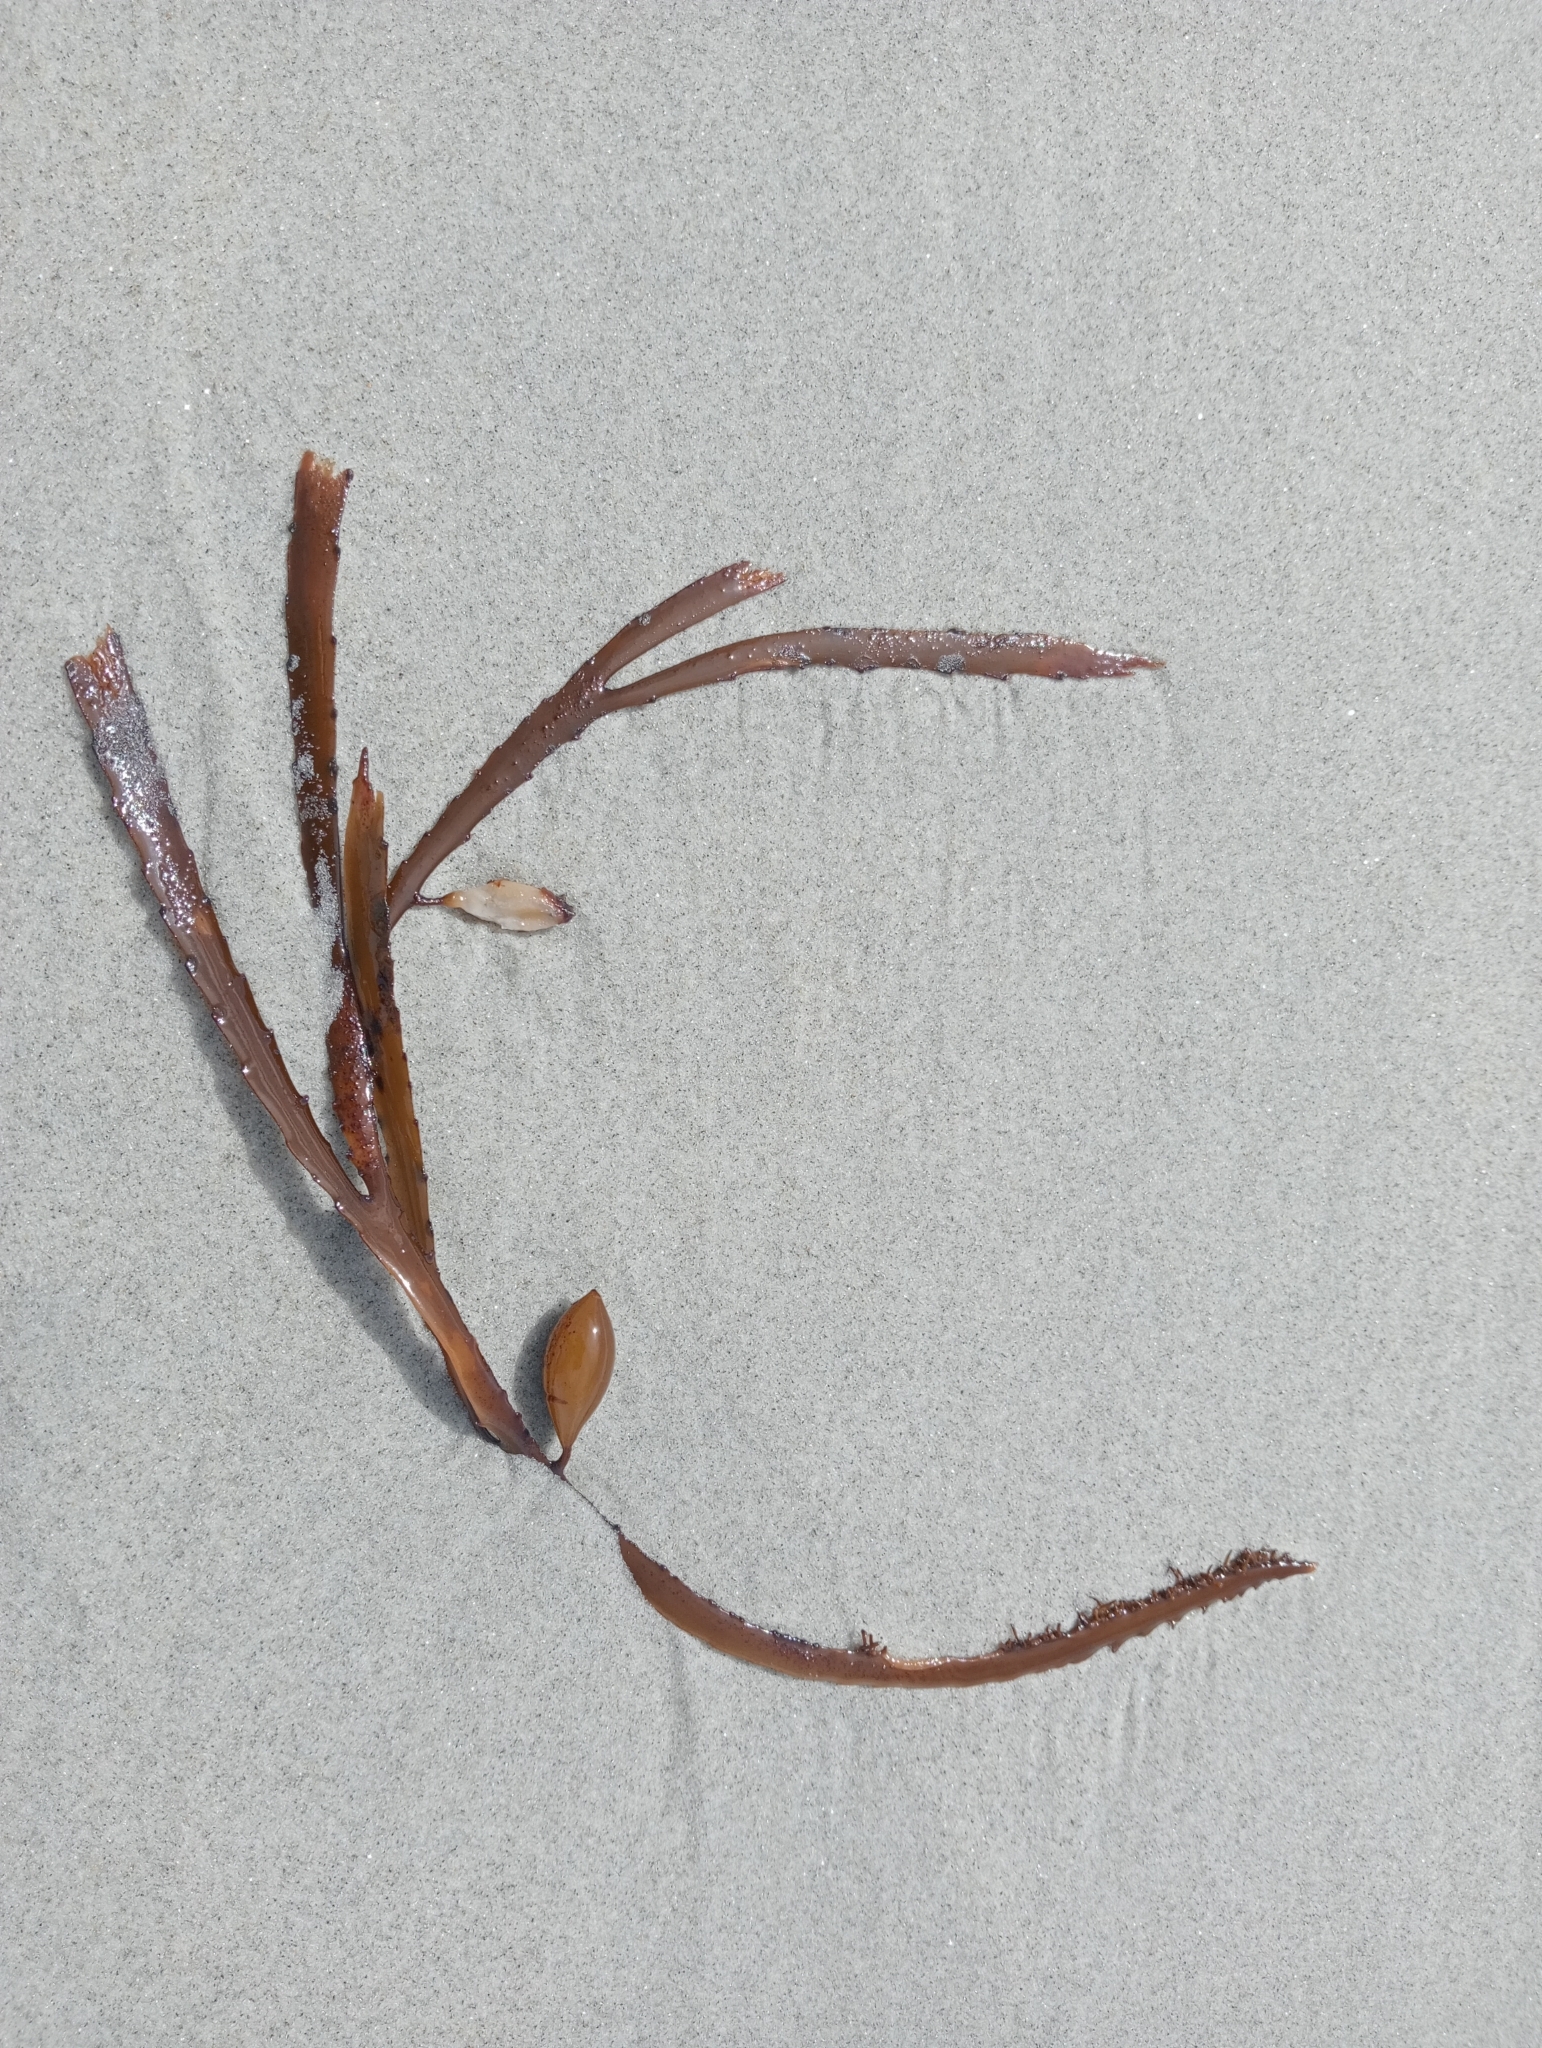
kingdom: Chromista
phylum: Ochrophyta
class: Phaeophyceae
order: Fucales
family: Seirococcaceae
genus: Marginariella
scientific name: Marginariella boryana
